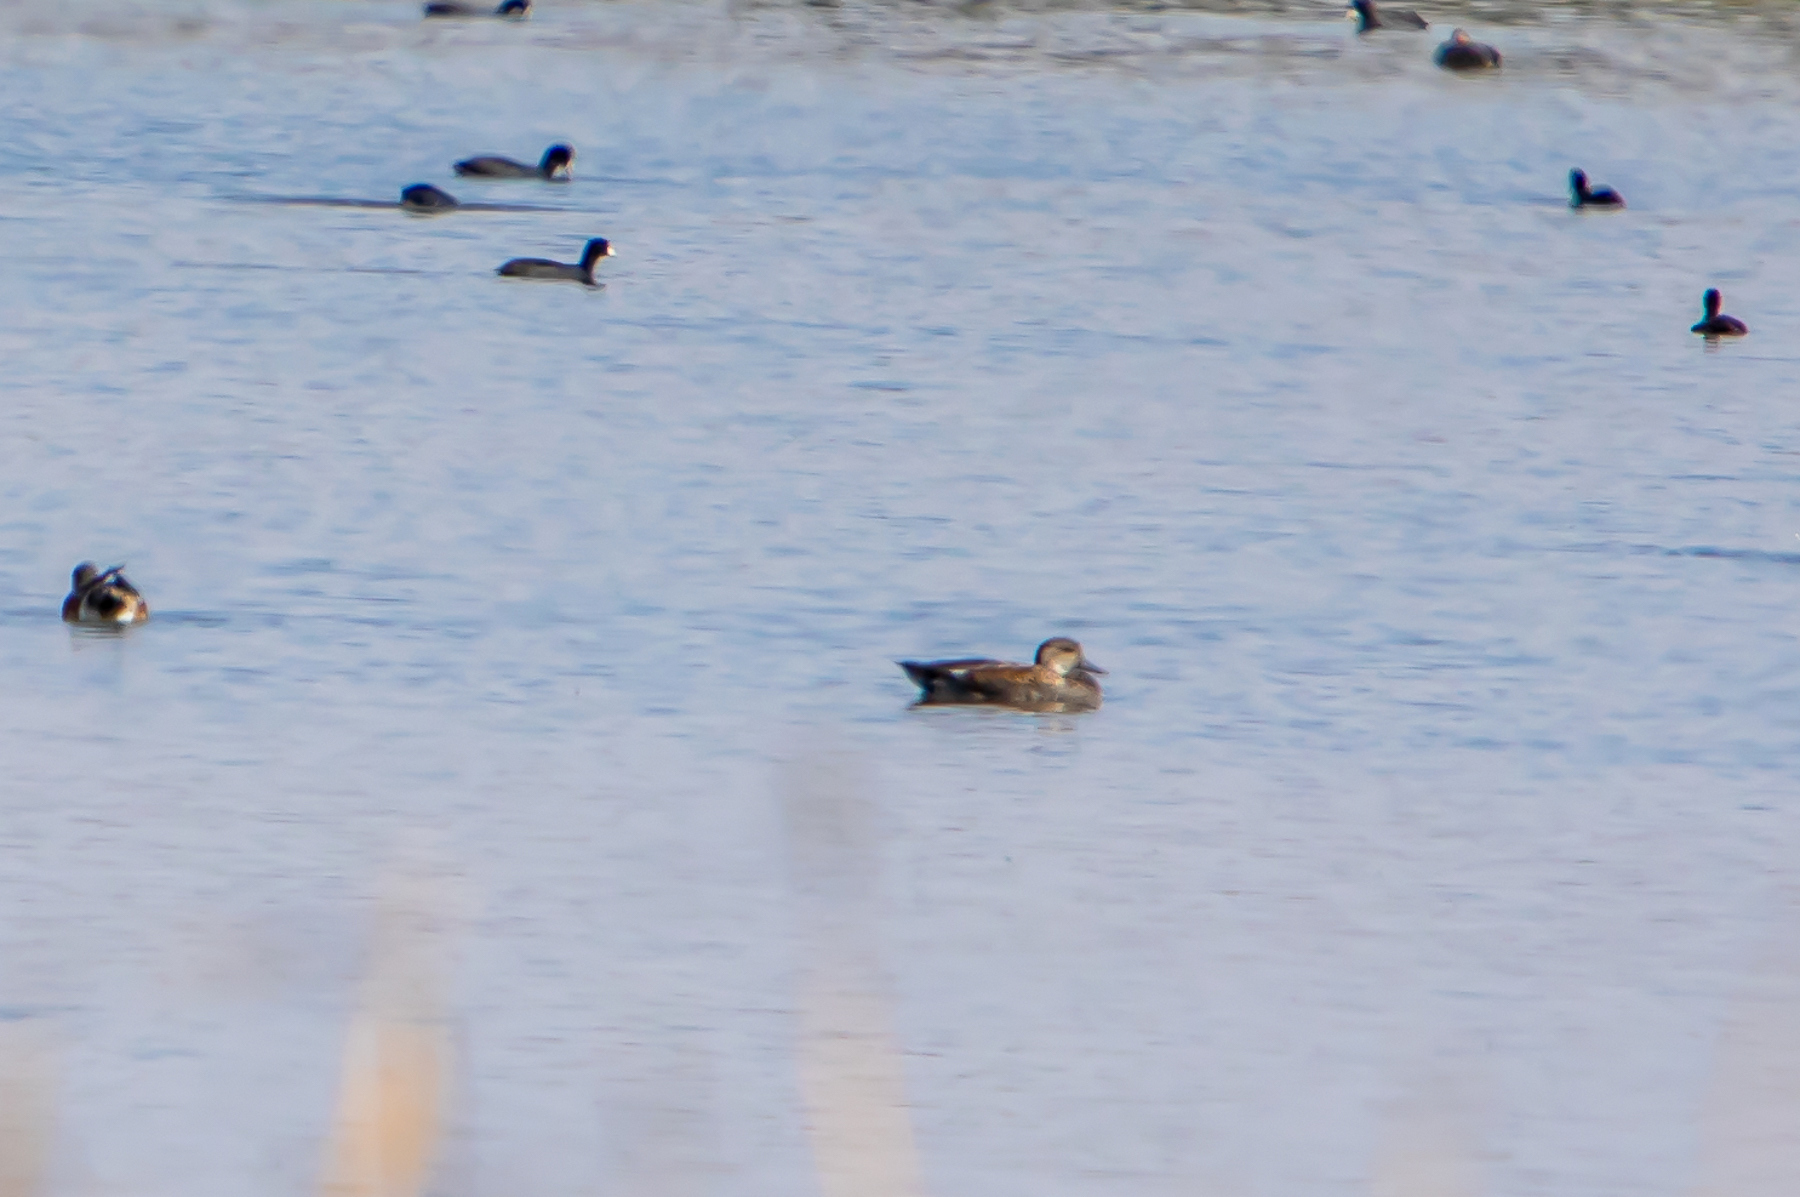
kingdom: Animalia
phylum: Chordata
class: Aves
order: Anseriformes
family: Anatidae
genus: Mareca
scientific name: Mareca strepera
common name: Gadwall
